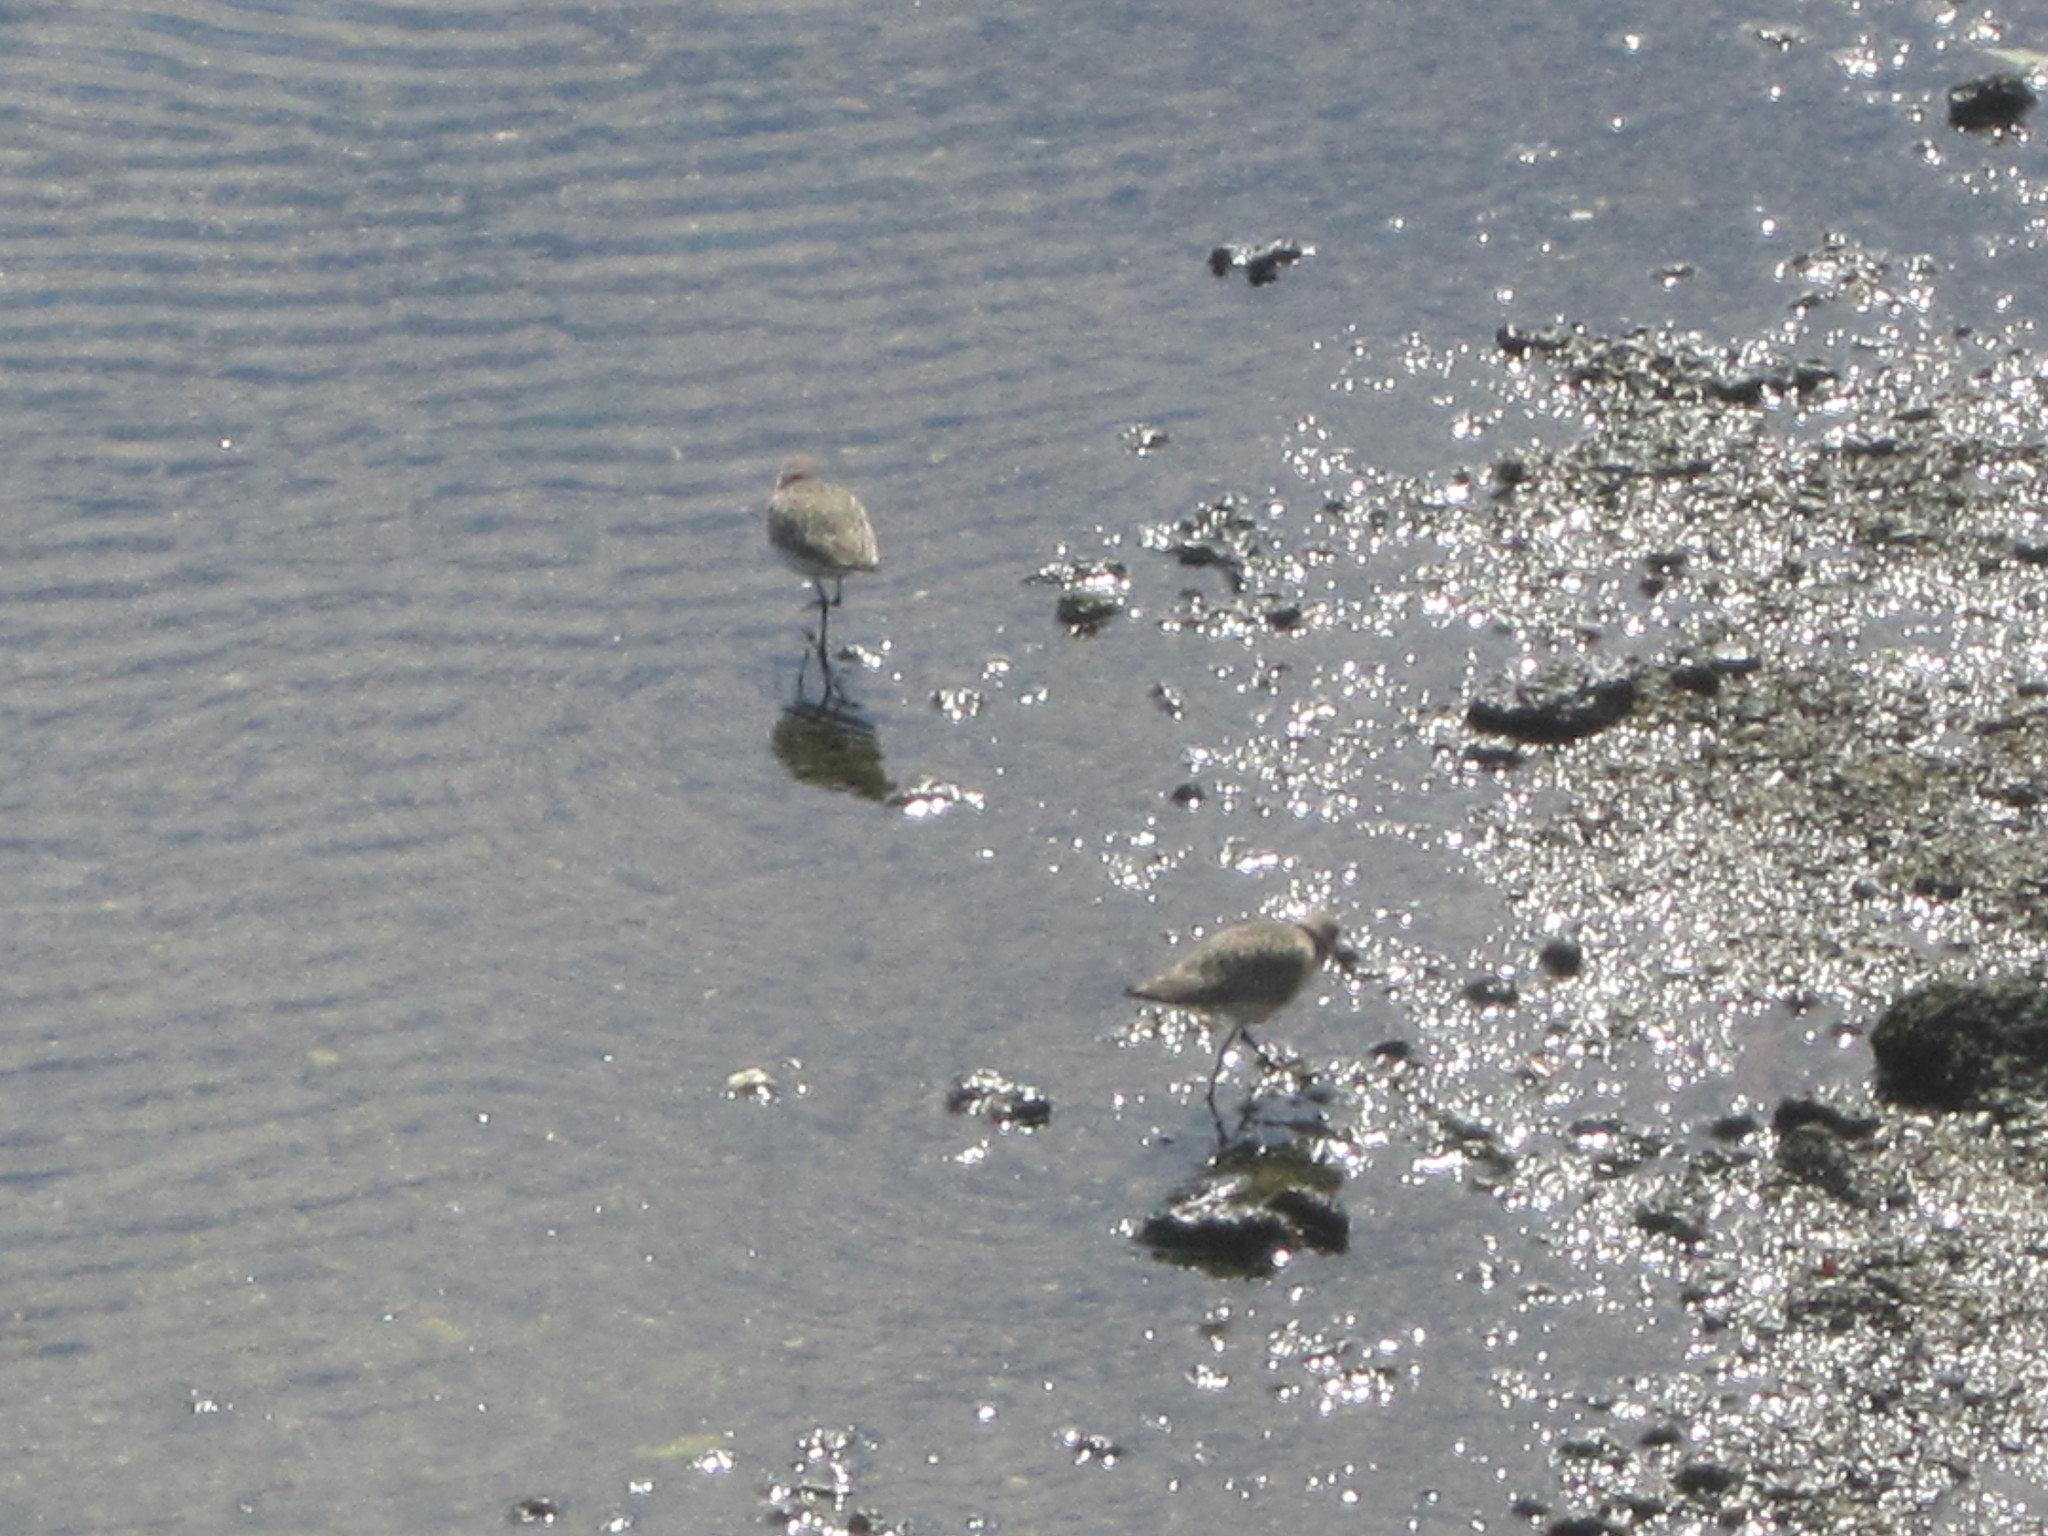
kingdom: Animalia
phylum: Chordata
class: Aves
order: Charadriiformes
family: Scolopacidae
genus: Calidris
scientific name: Calidris alpina
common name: Dunlin
